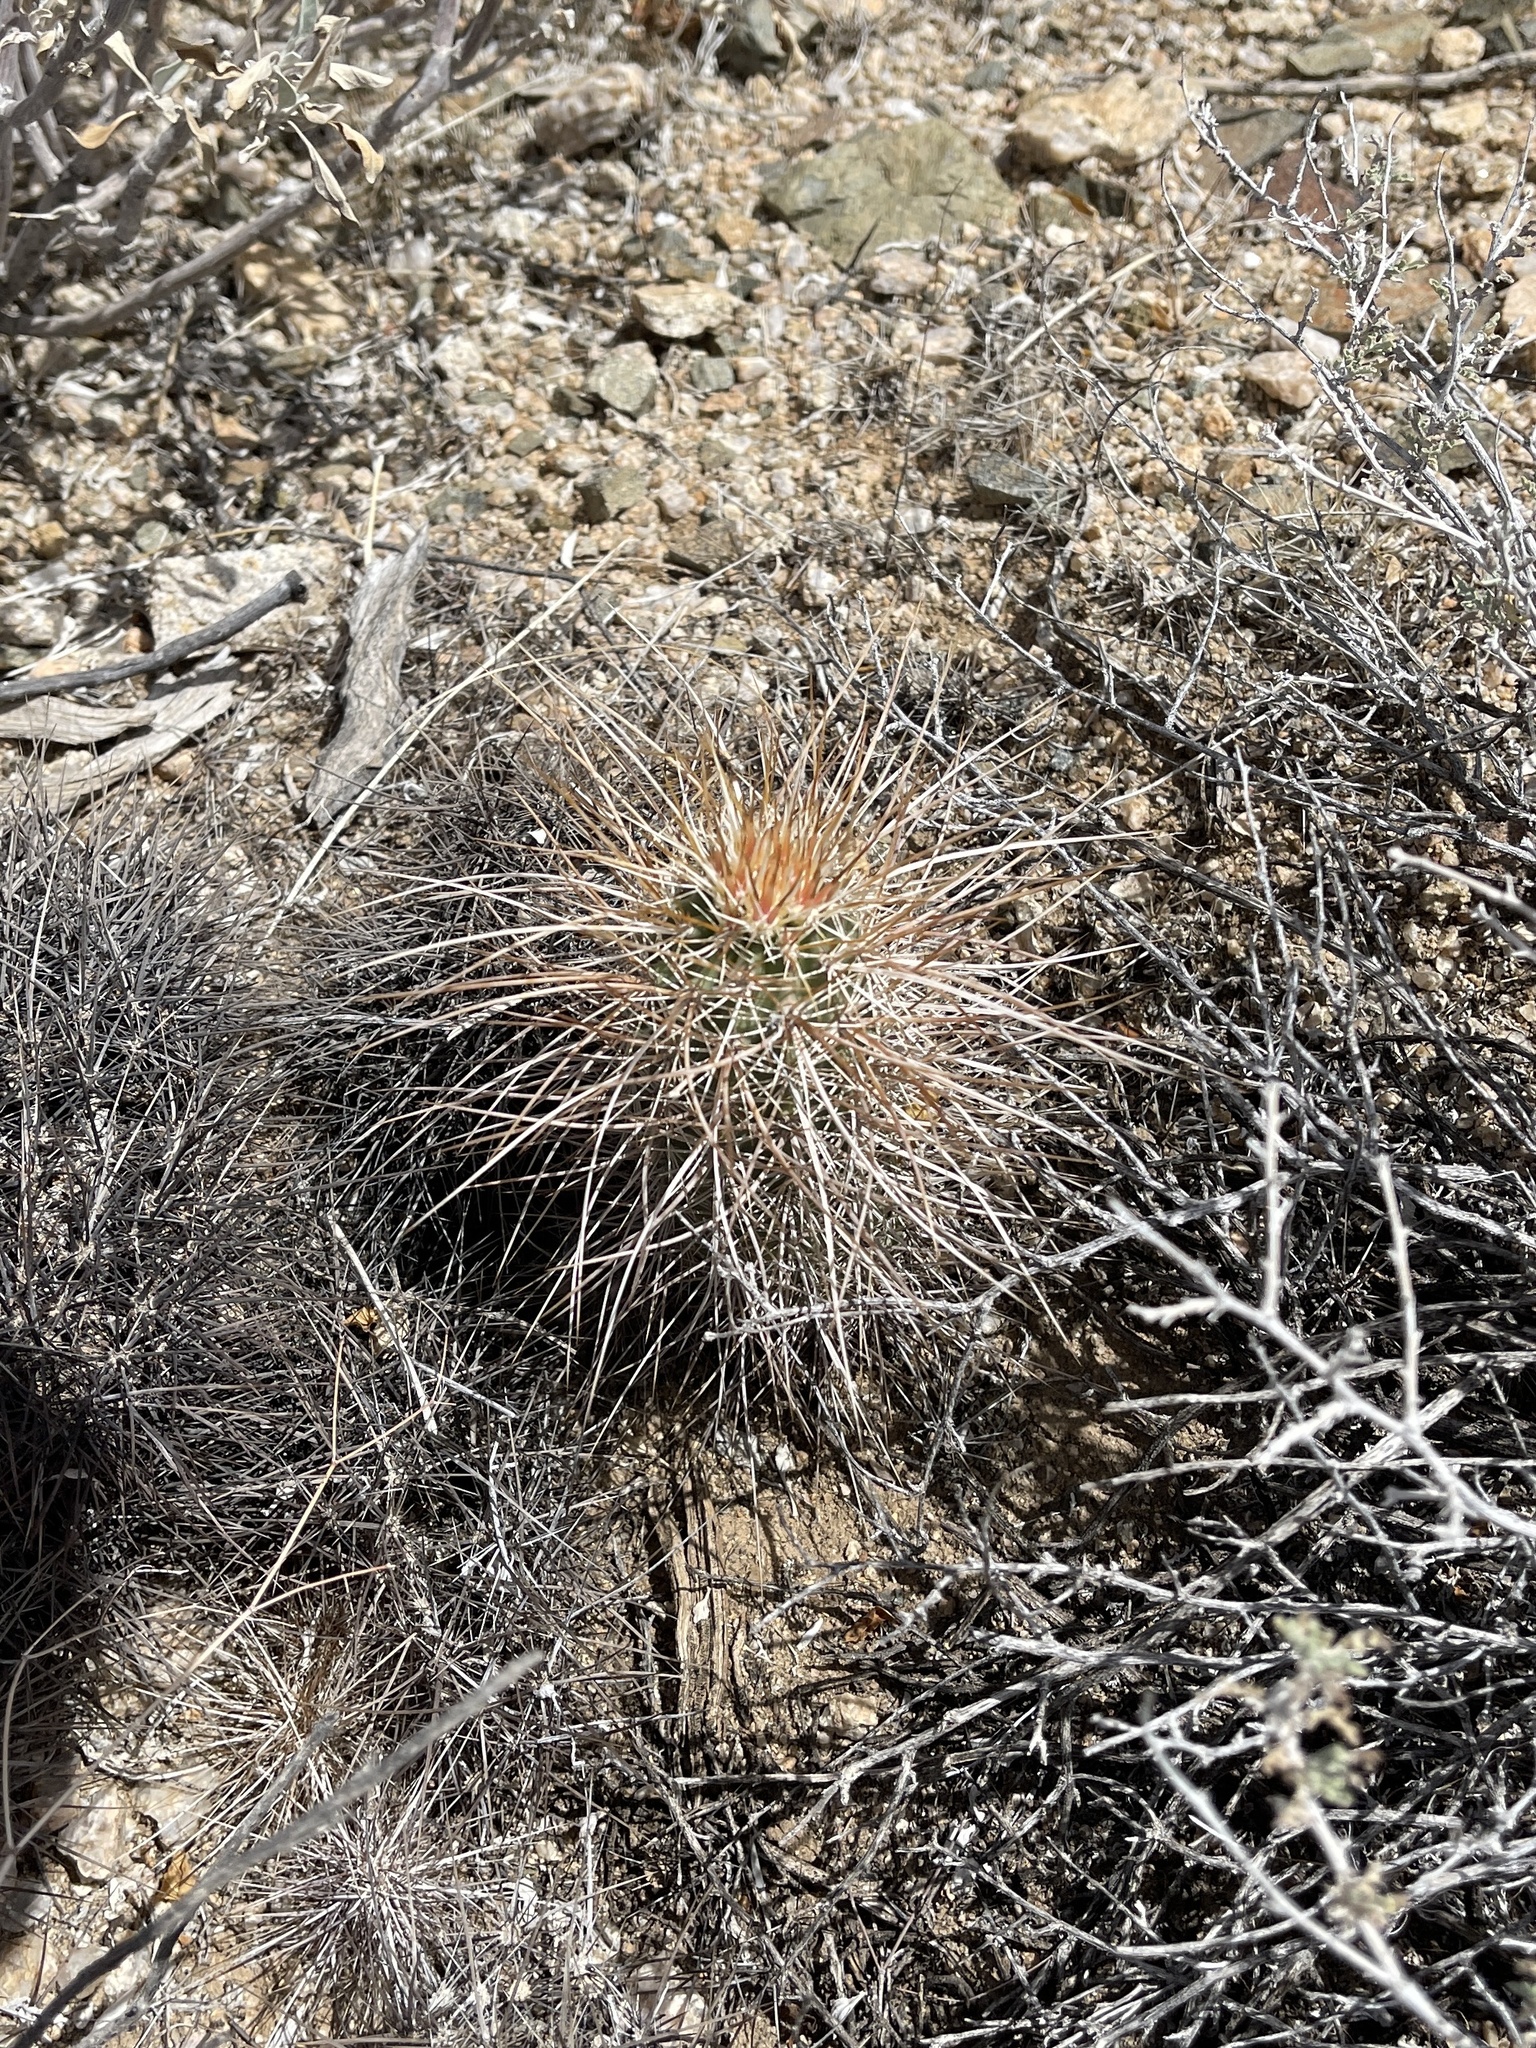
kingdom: Plantae
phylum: Tracheophyta
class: Magnoliopsida
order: Caryophyllales
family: Cactaceae
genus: Echinocereus
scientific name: Echinocereus engelmannii
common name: Engelmann's hedgehog cactus
